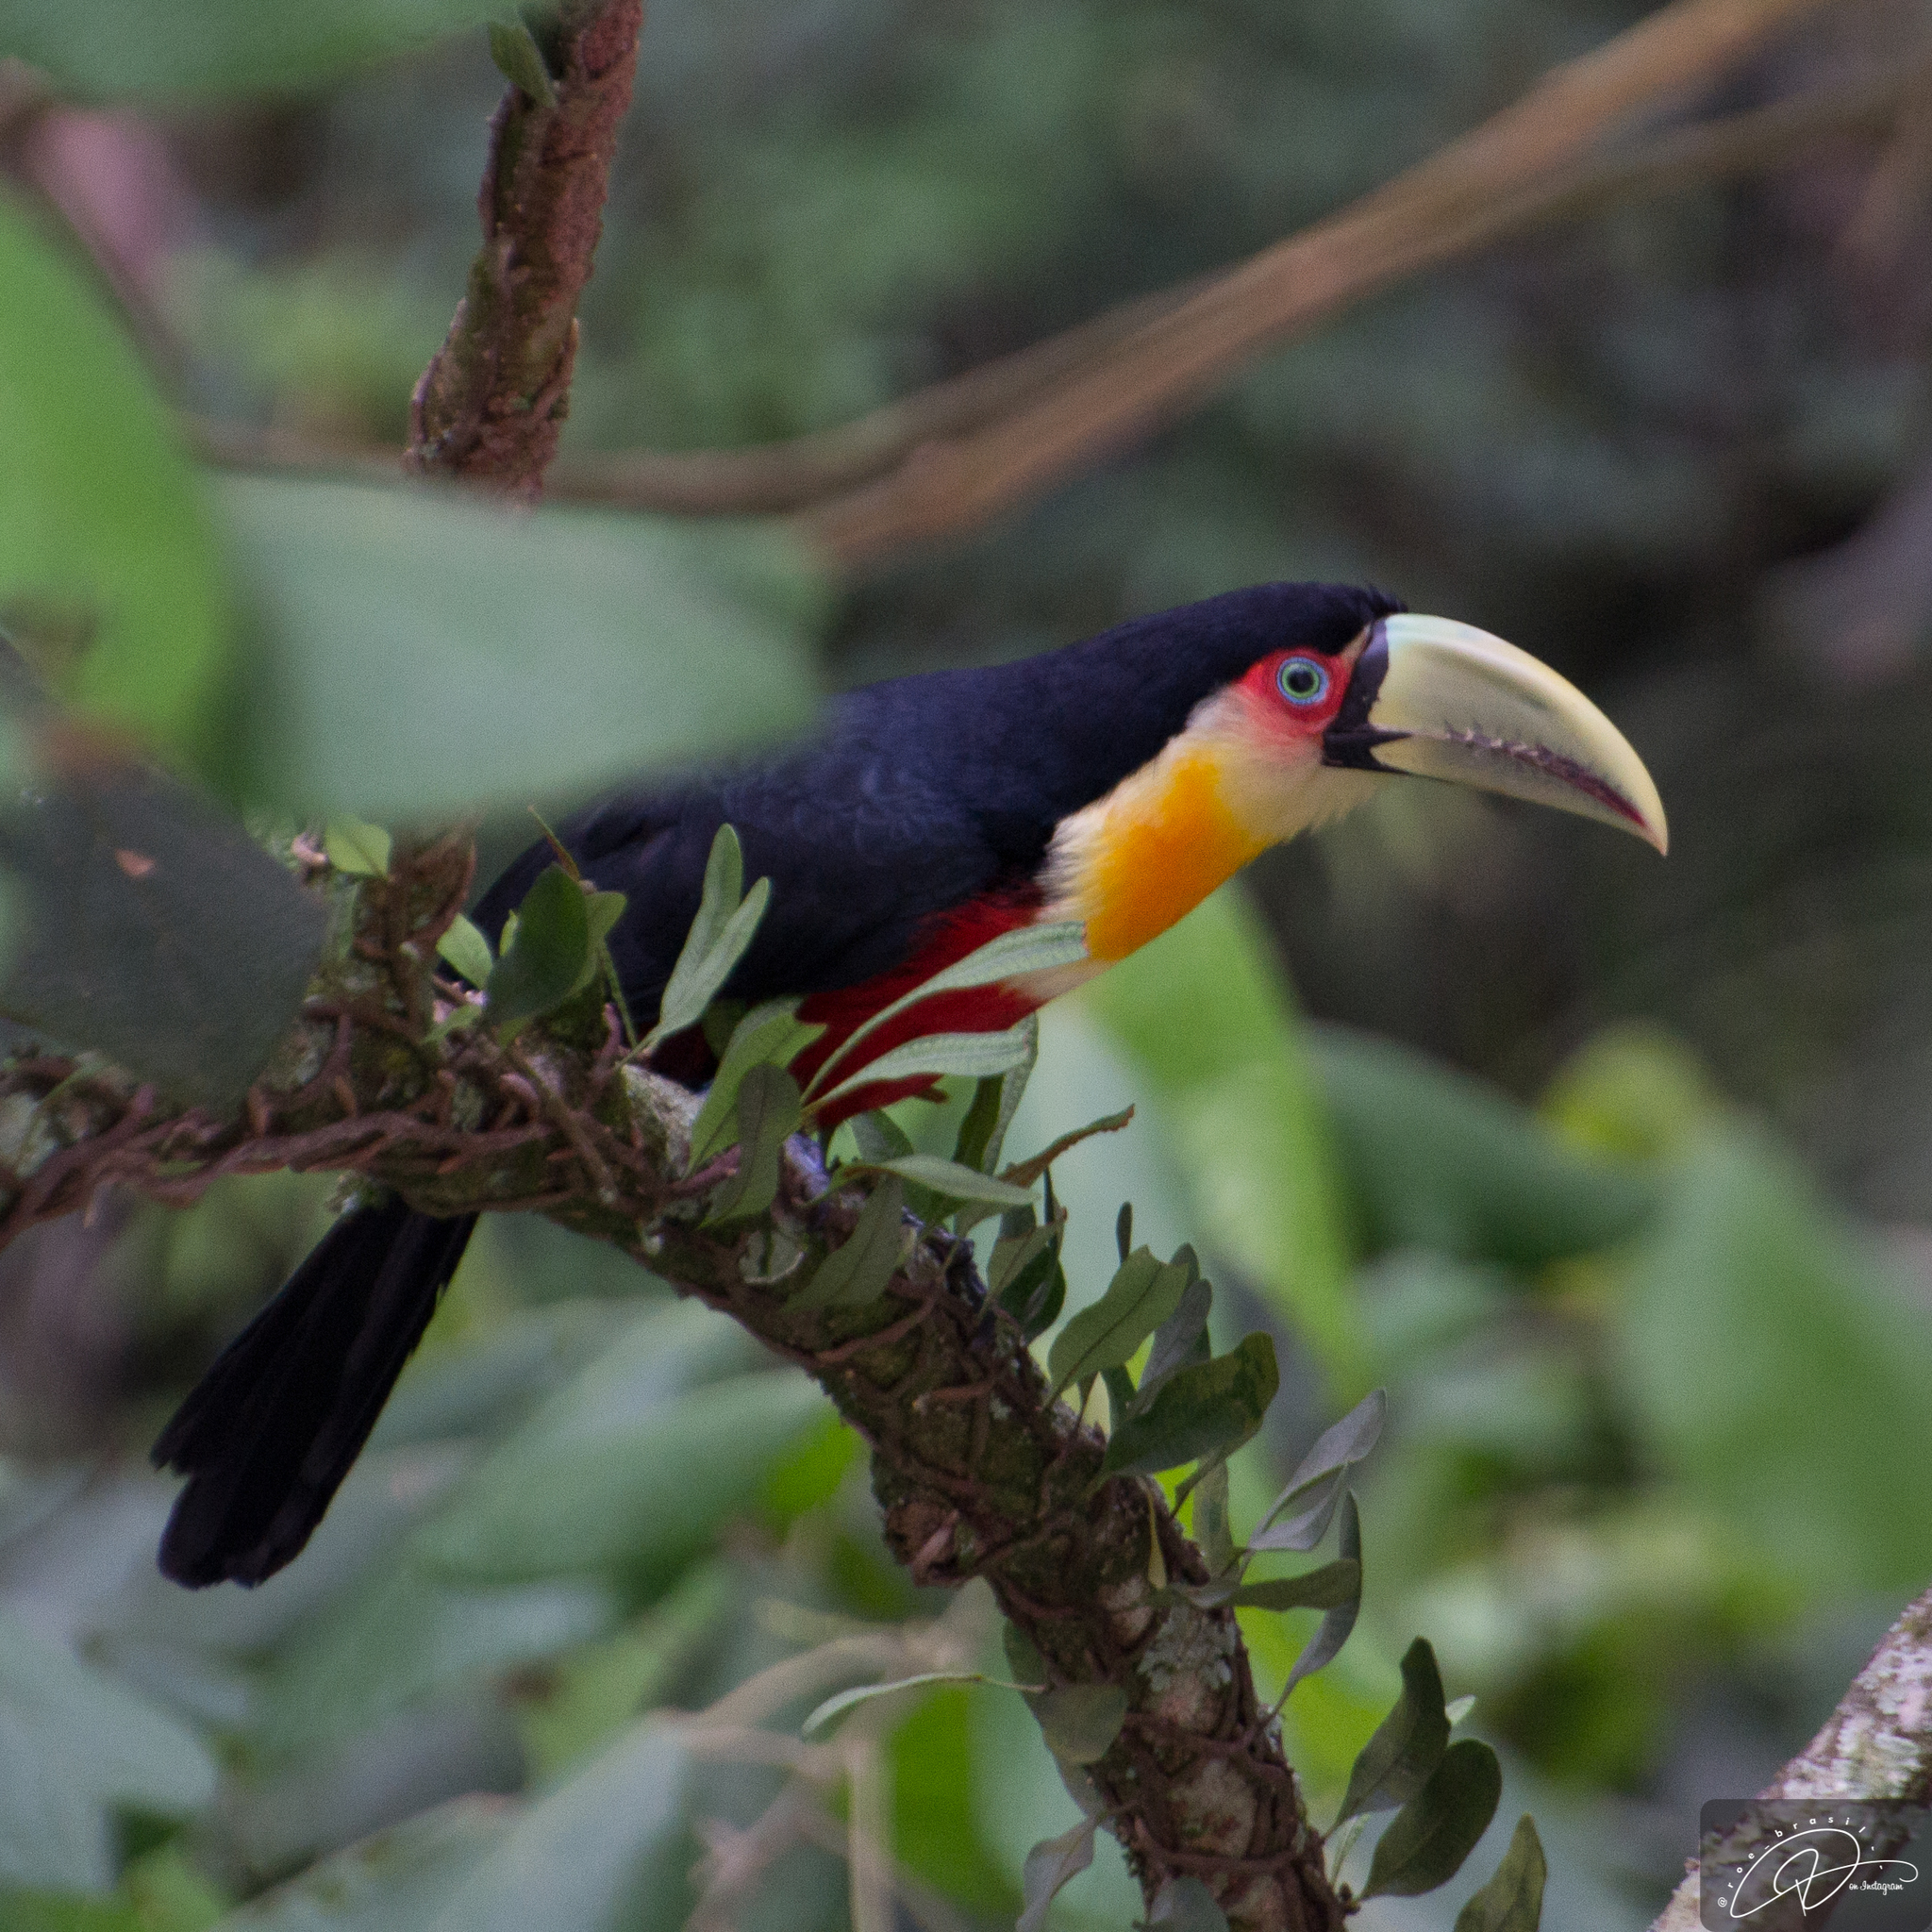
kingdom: Animalia
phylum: Chordata
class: Aves
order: Piciformes
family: Ramphastidae
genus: Ramphastos
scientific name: Ramphastos dicolorus
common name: Green-billed toucan
